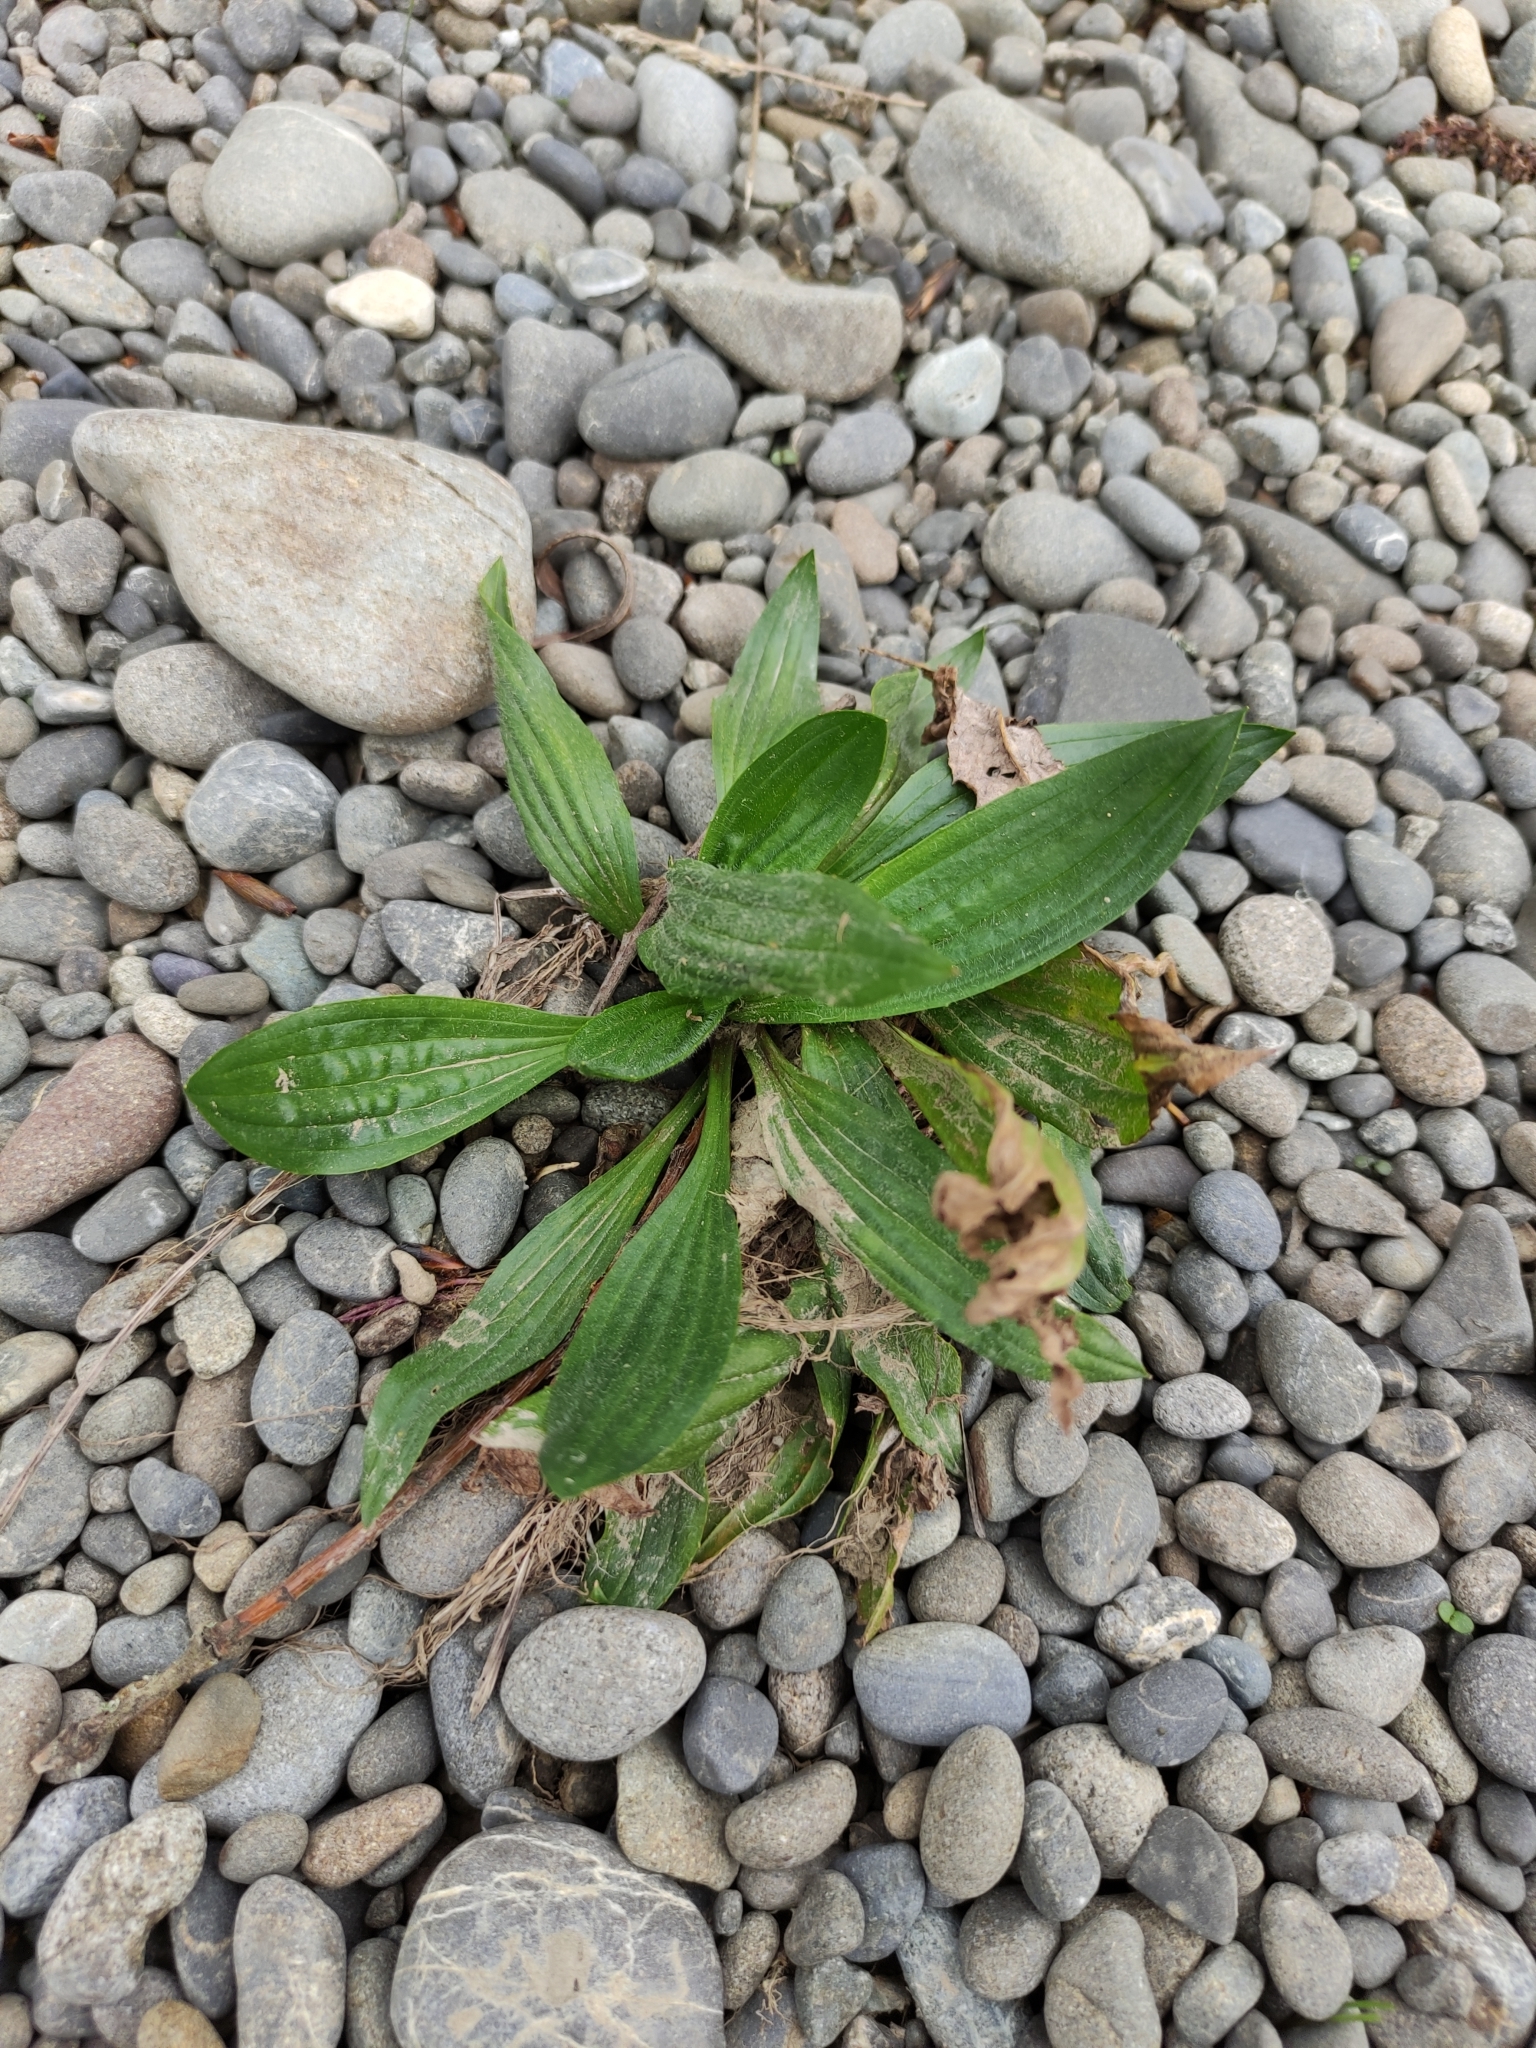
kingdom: Plantae
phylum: Tracheophyta
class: Magnoliopsida
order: Lamiales
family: Plantaginaceae
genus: Plantago
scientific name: Plantago lanceolata
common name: Ribwort plantain
